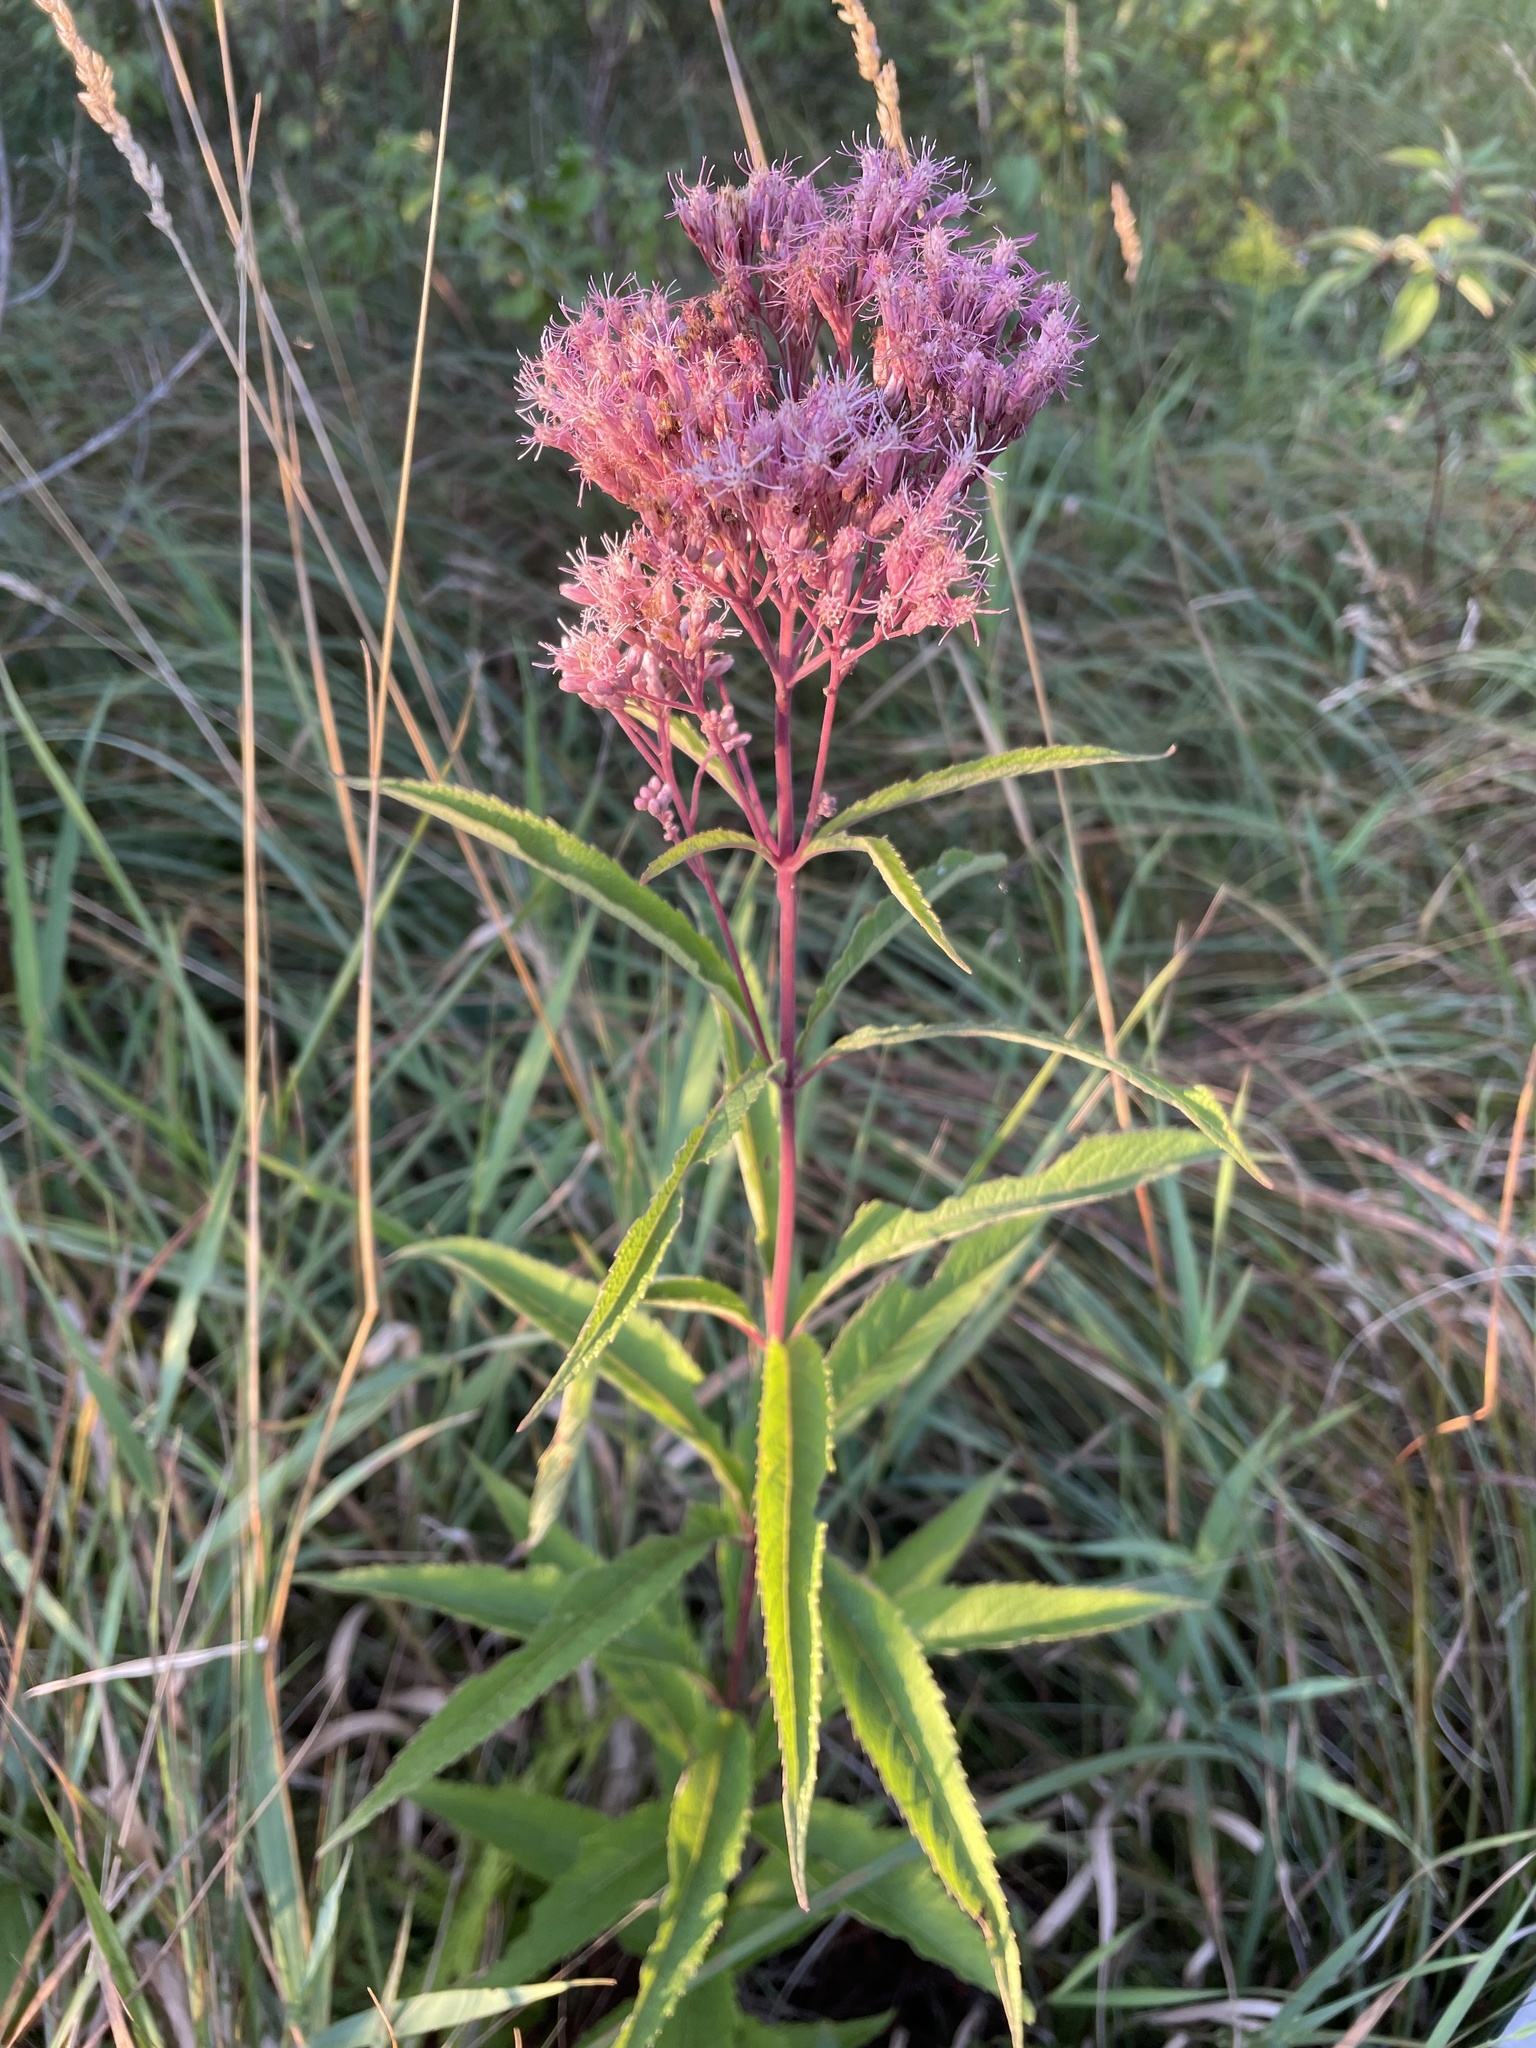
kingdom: Plantae
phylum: Tracheophyta
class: Magnoliopsida
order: Asterales
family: Asteraceae
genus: Eutrochium
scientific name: Eutrochium maculatum
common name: Spotted joe pye weed
